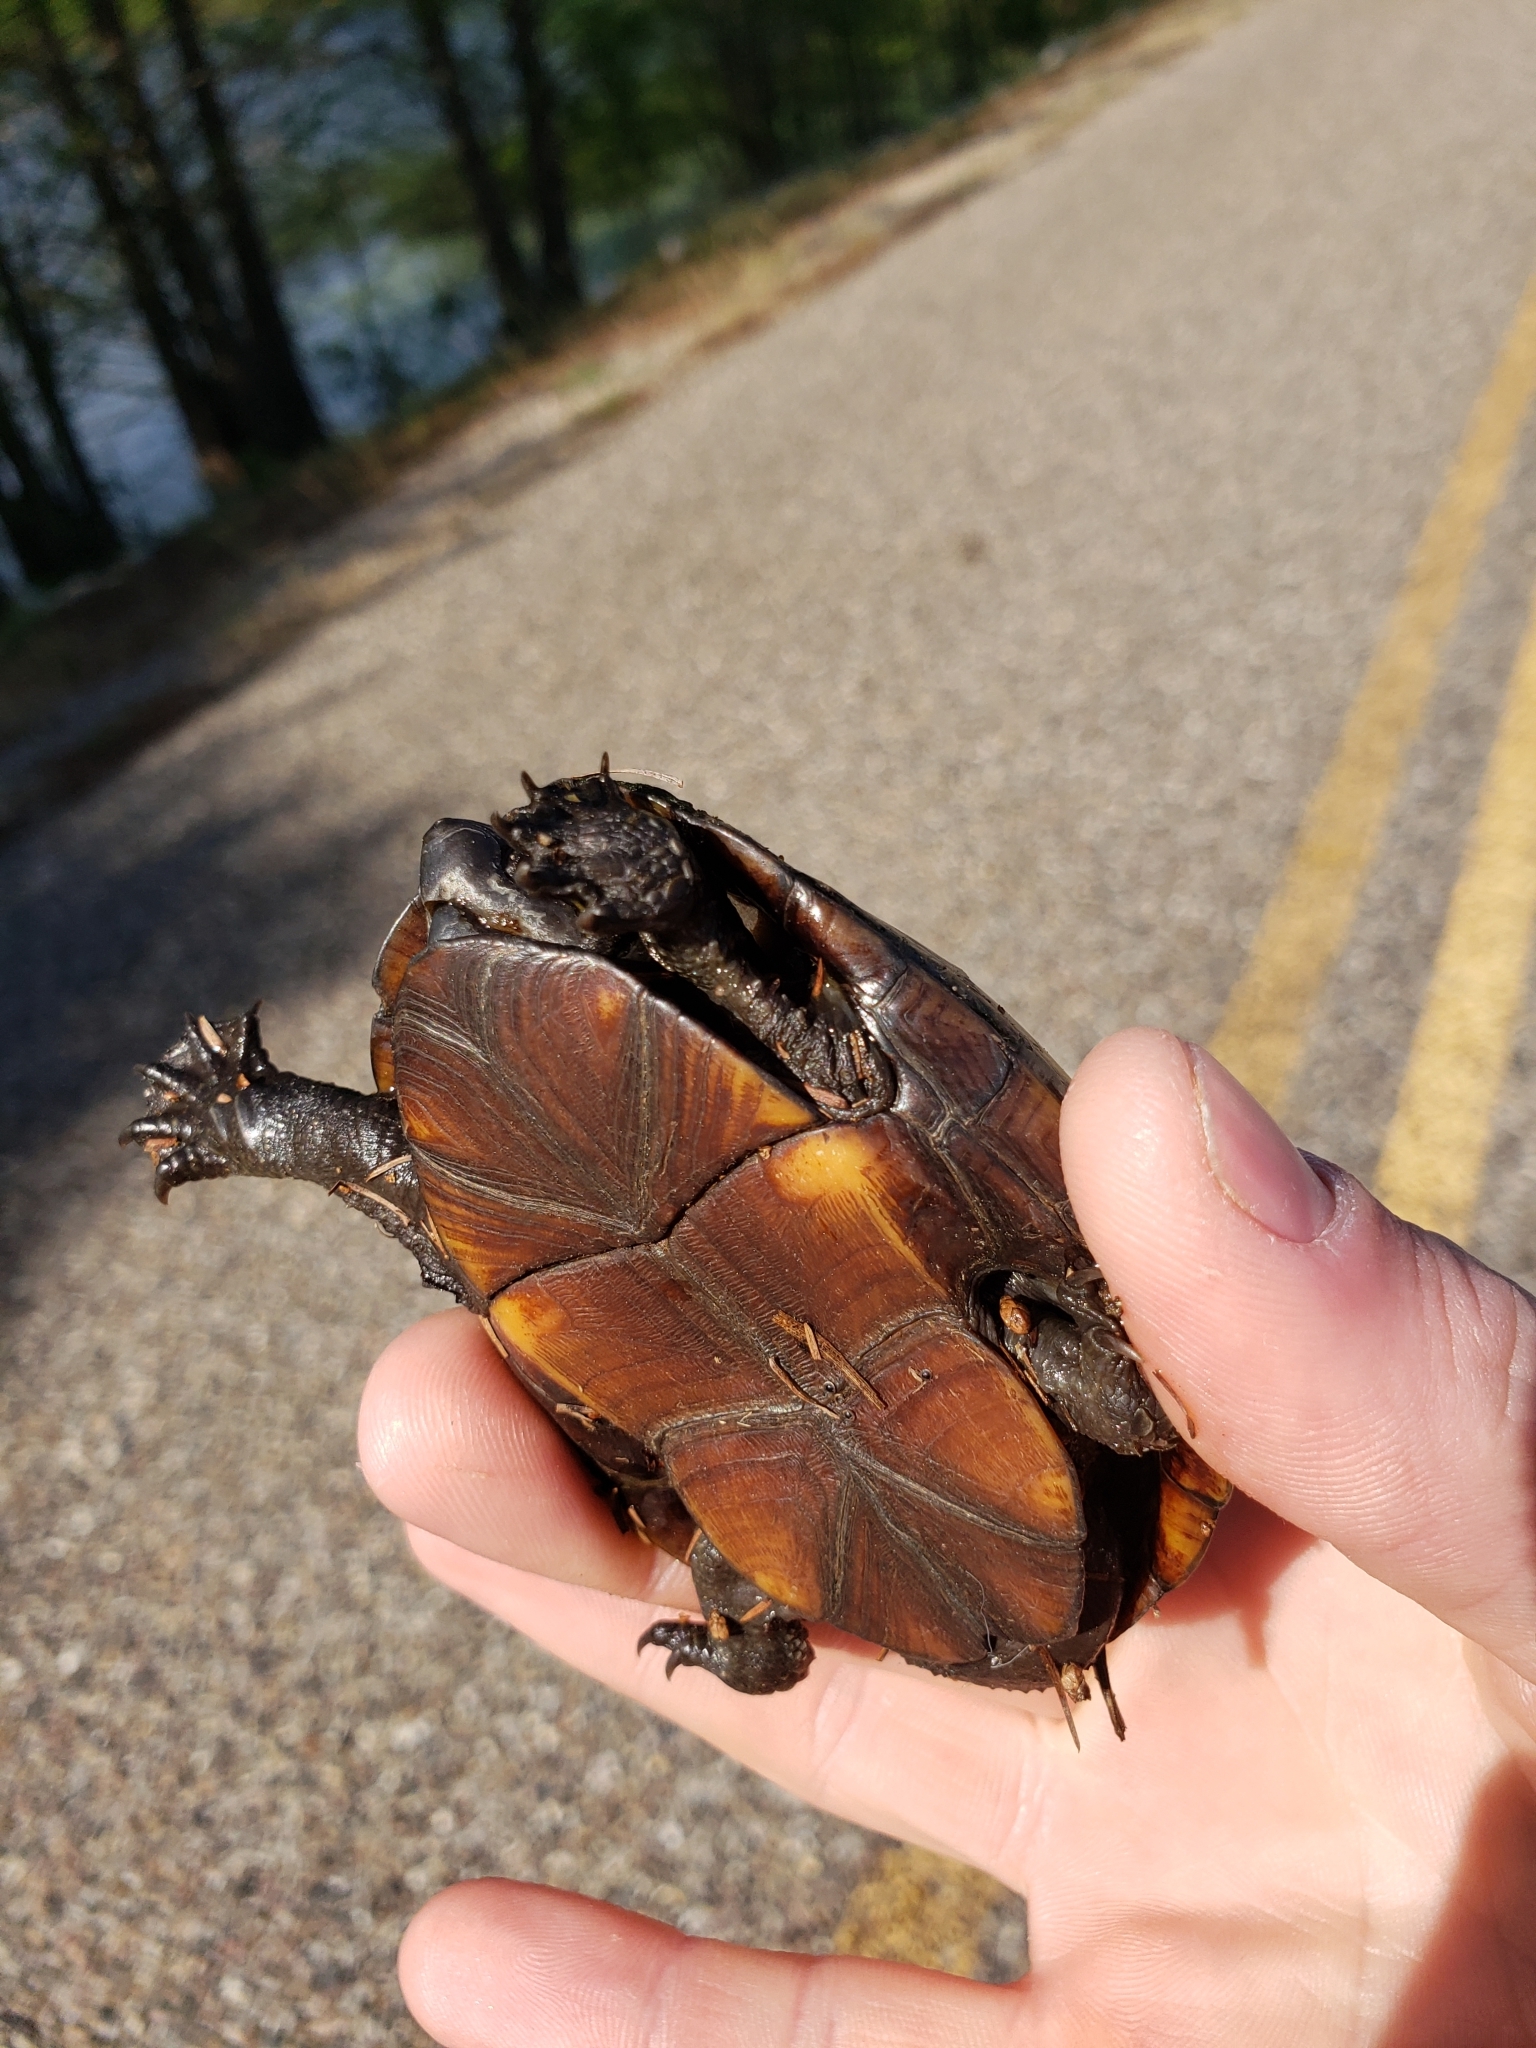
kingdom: Animalia
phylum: Chordata
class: Testudines
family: Kinosternidae
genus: Kinosternon
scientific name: Kinosternon subrubrum
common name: Eastern mud turtle
